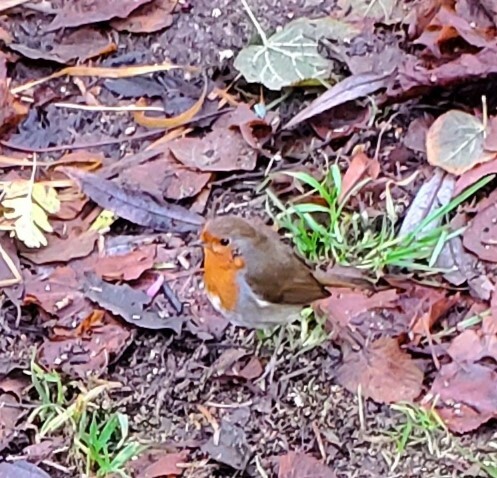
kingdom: Animalia
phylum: Chordata
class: Aves
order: Passeriformes
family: Muscicapidae
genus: Erithacus
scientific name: Erithacus rubecula
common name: European robin
